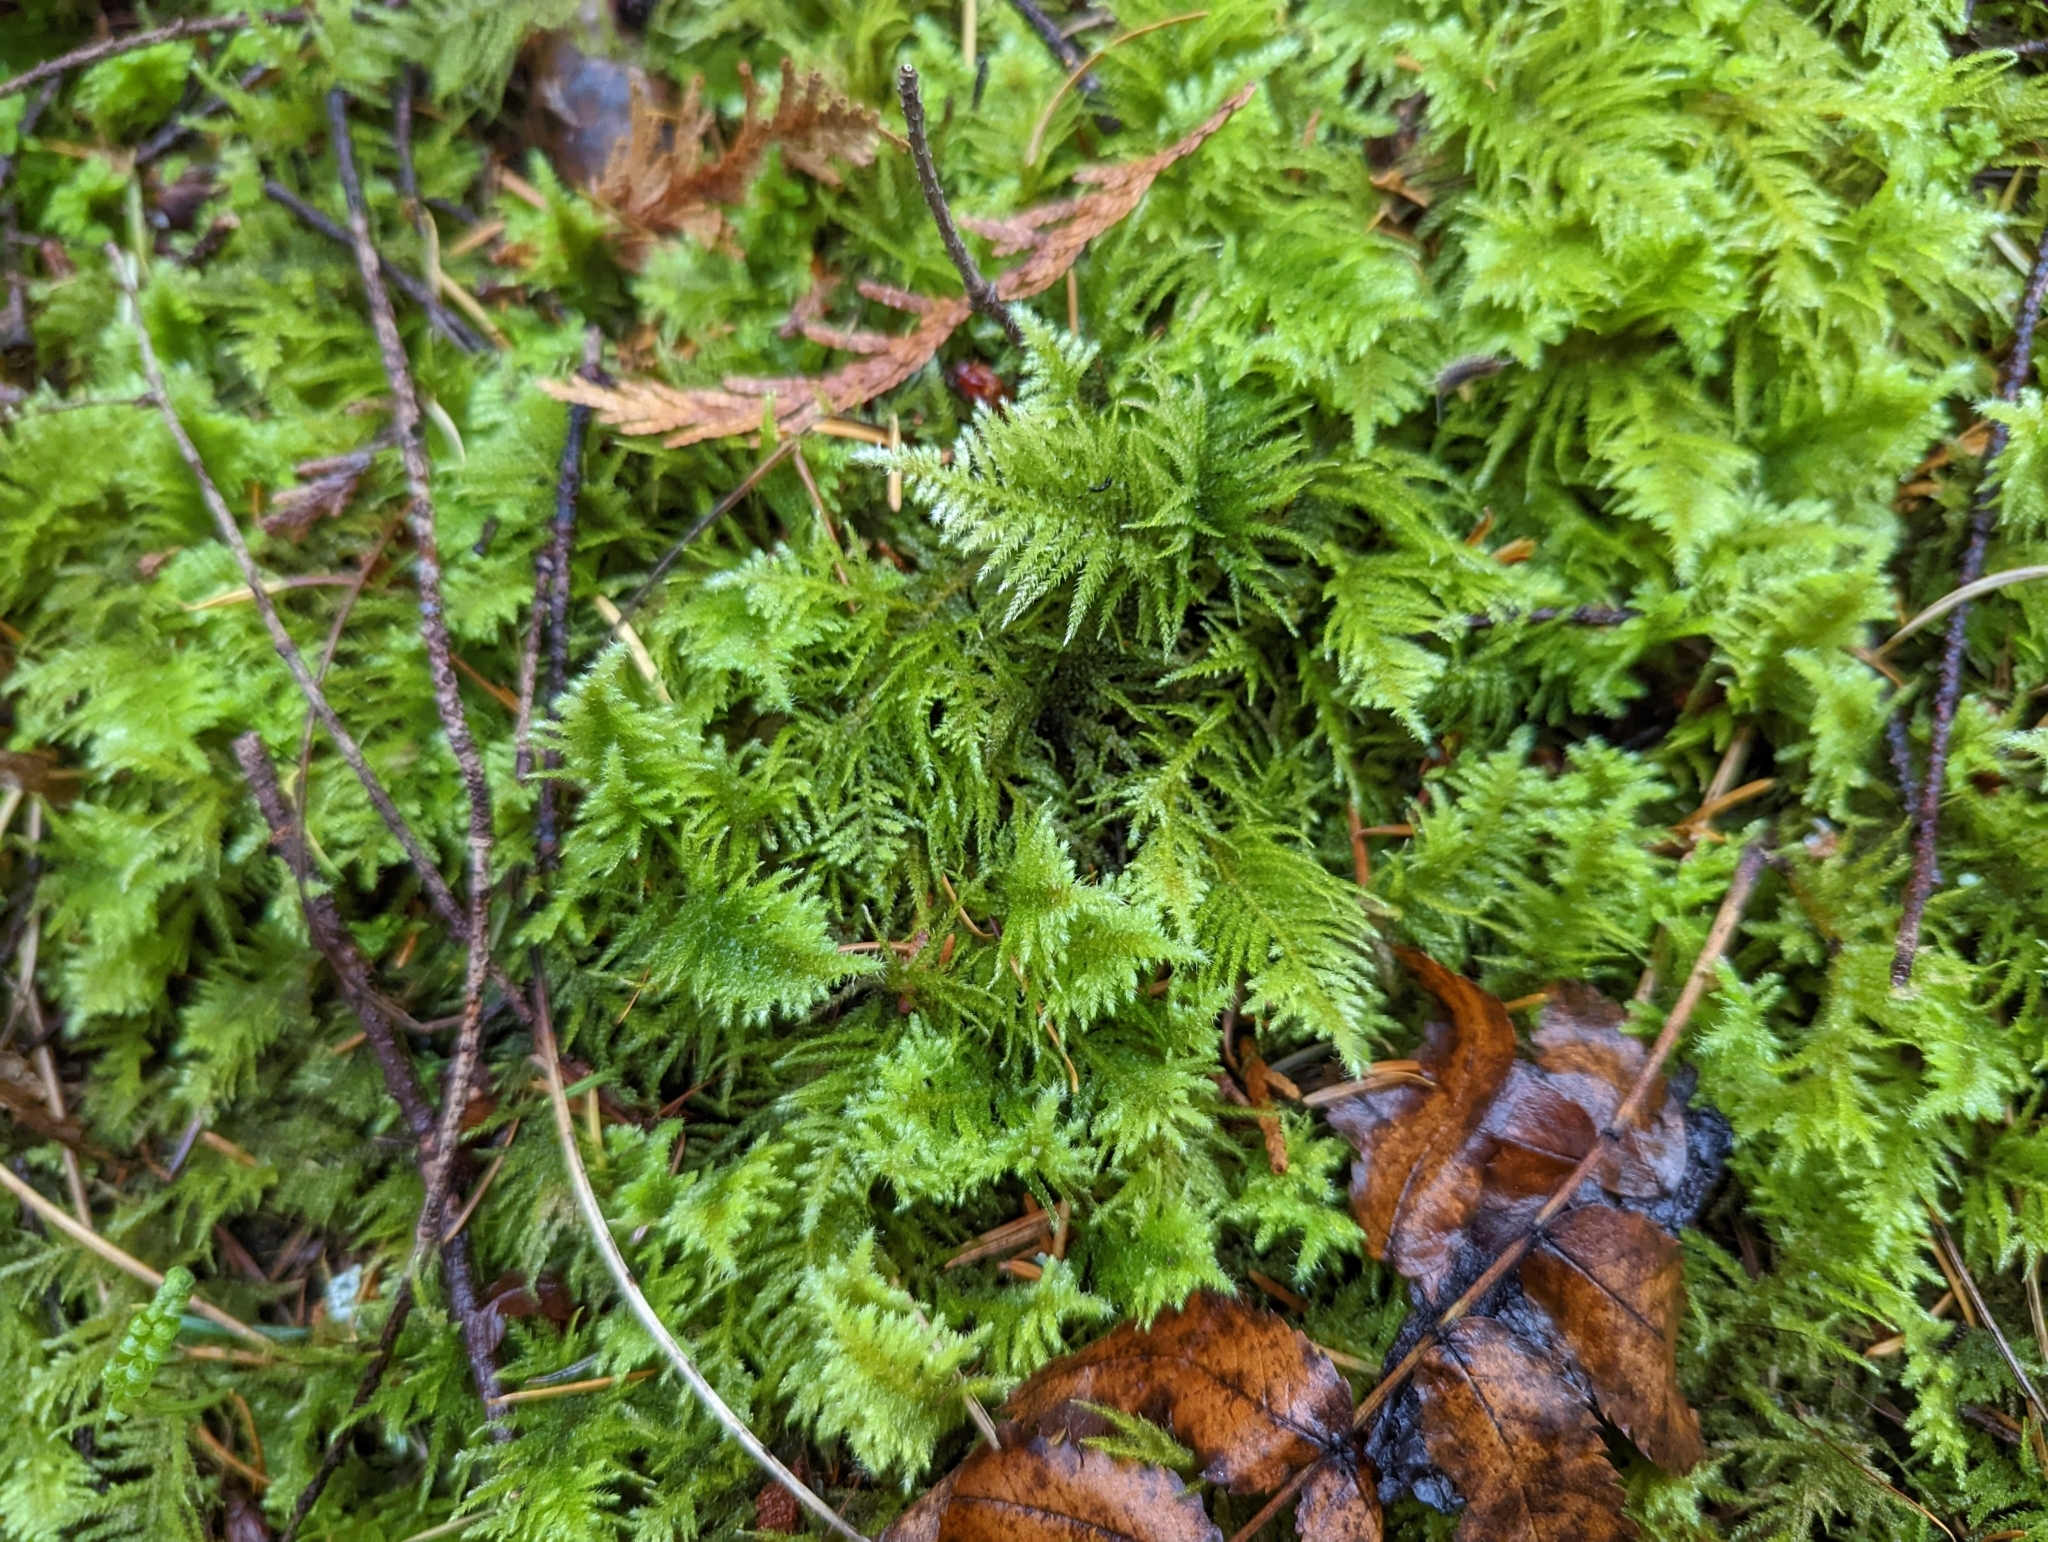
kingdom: Plantae
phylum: Bryophyta
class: Bryopsida
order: Hypnales
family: Brachytheciaceae
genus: Kindbergia
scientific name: Kindbergia oregana
